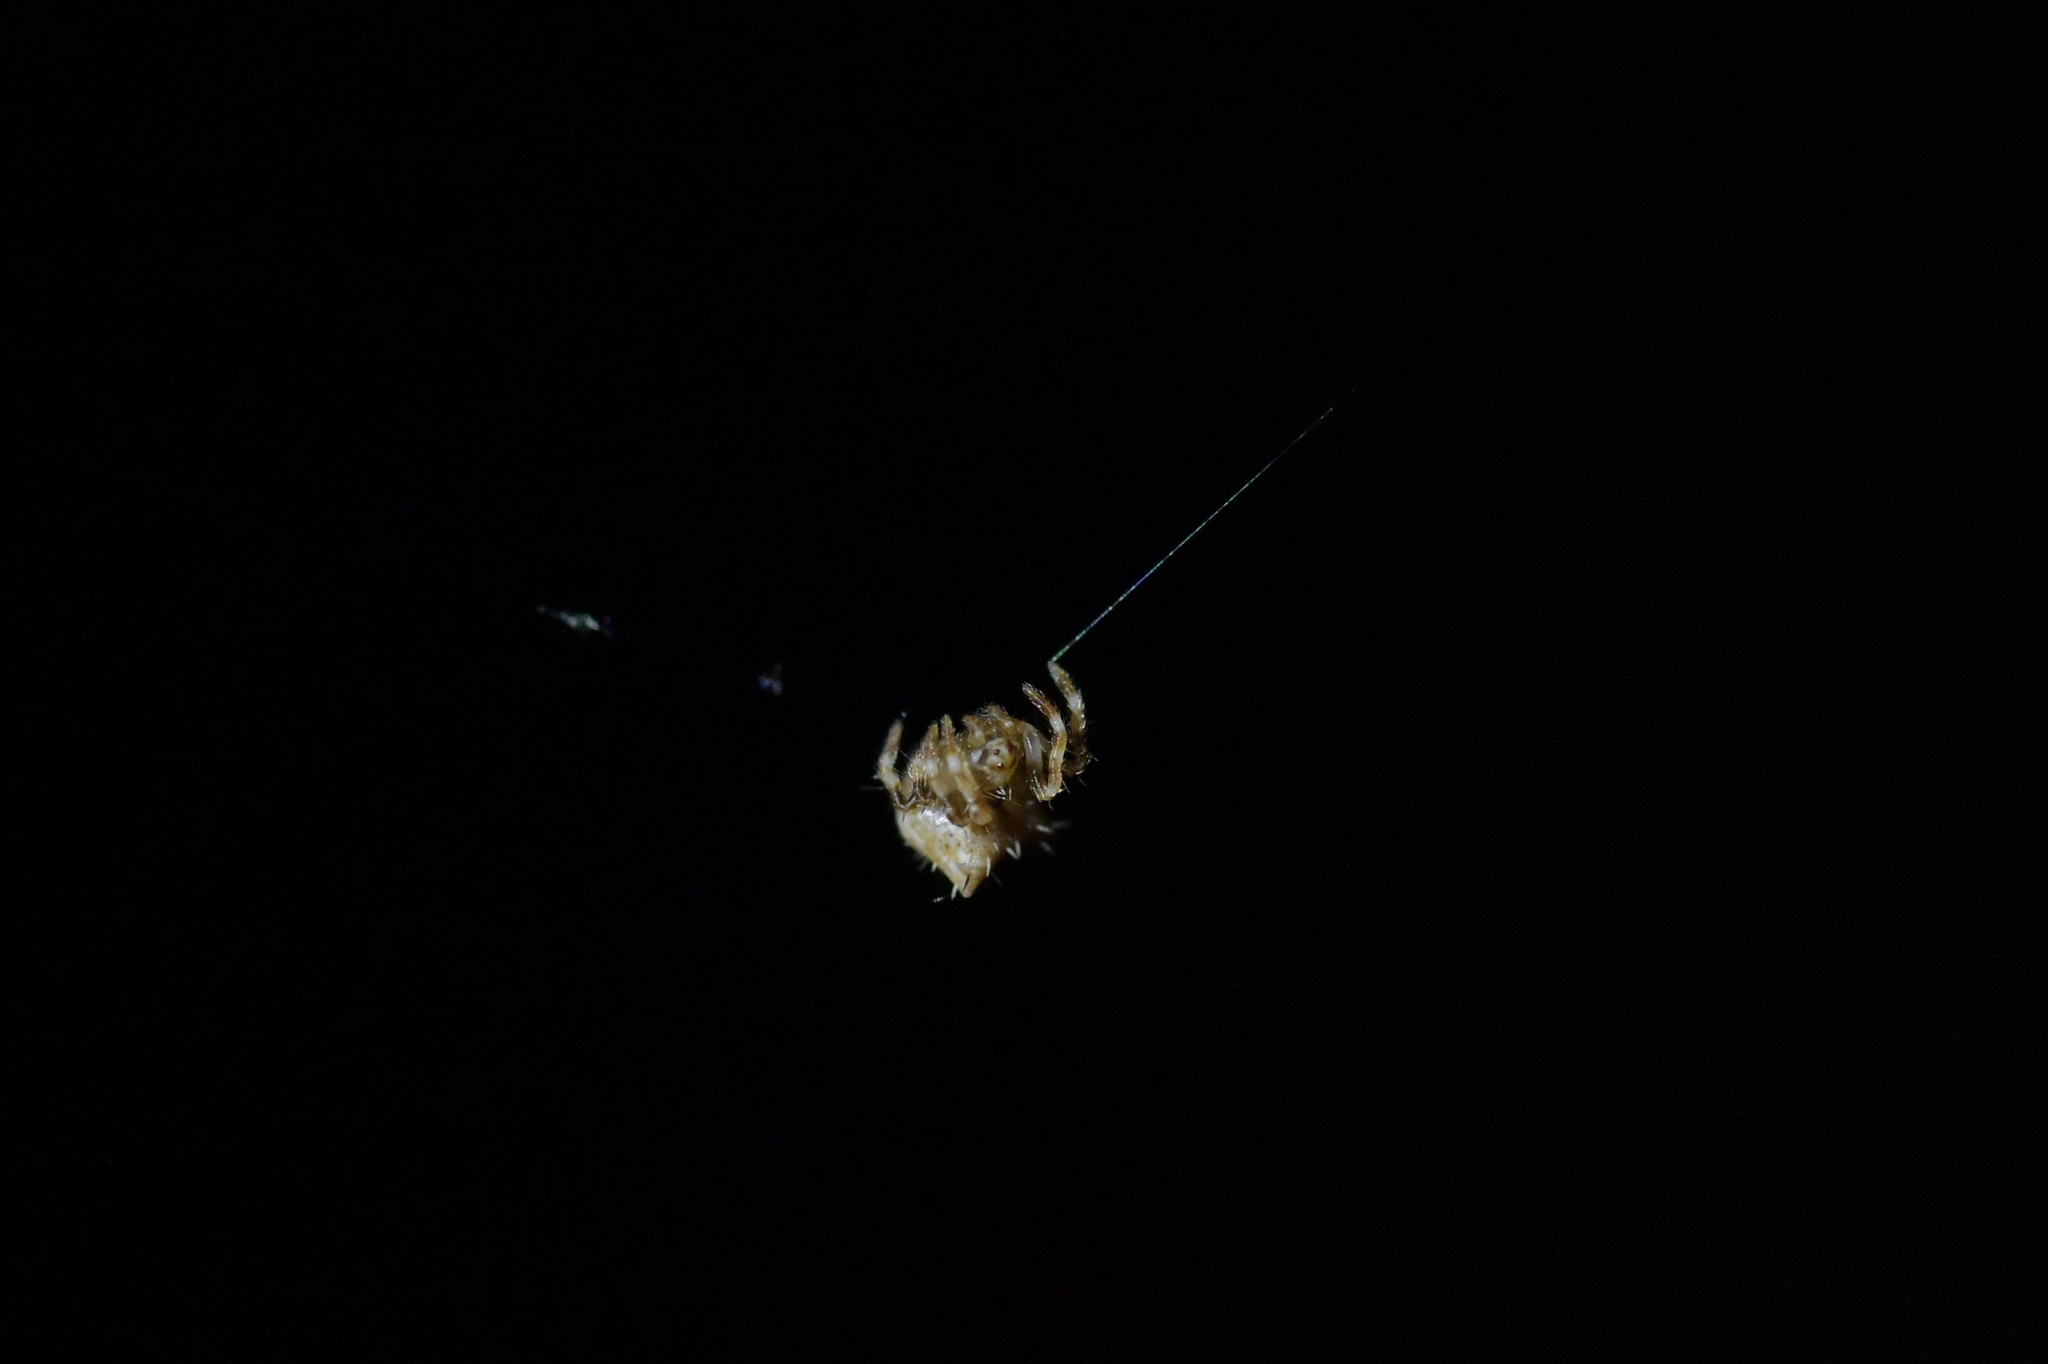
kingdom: Animalia
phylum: Arthropoda
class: Arachnida
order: Araneae
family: Araneidae
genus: Celaenia
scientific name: Celaenia olivacea
